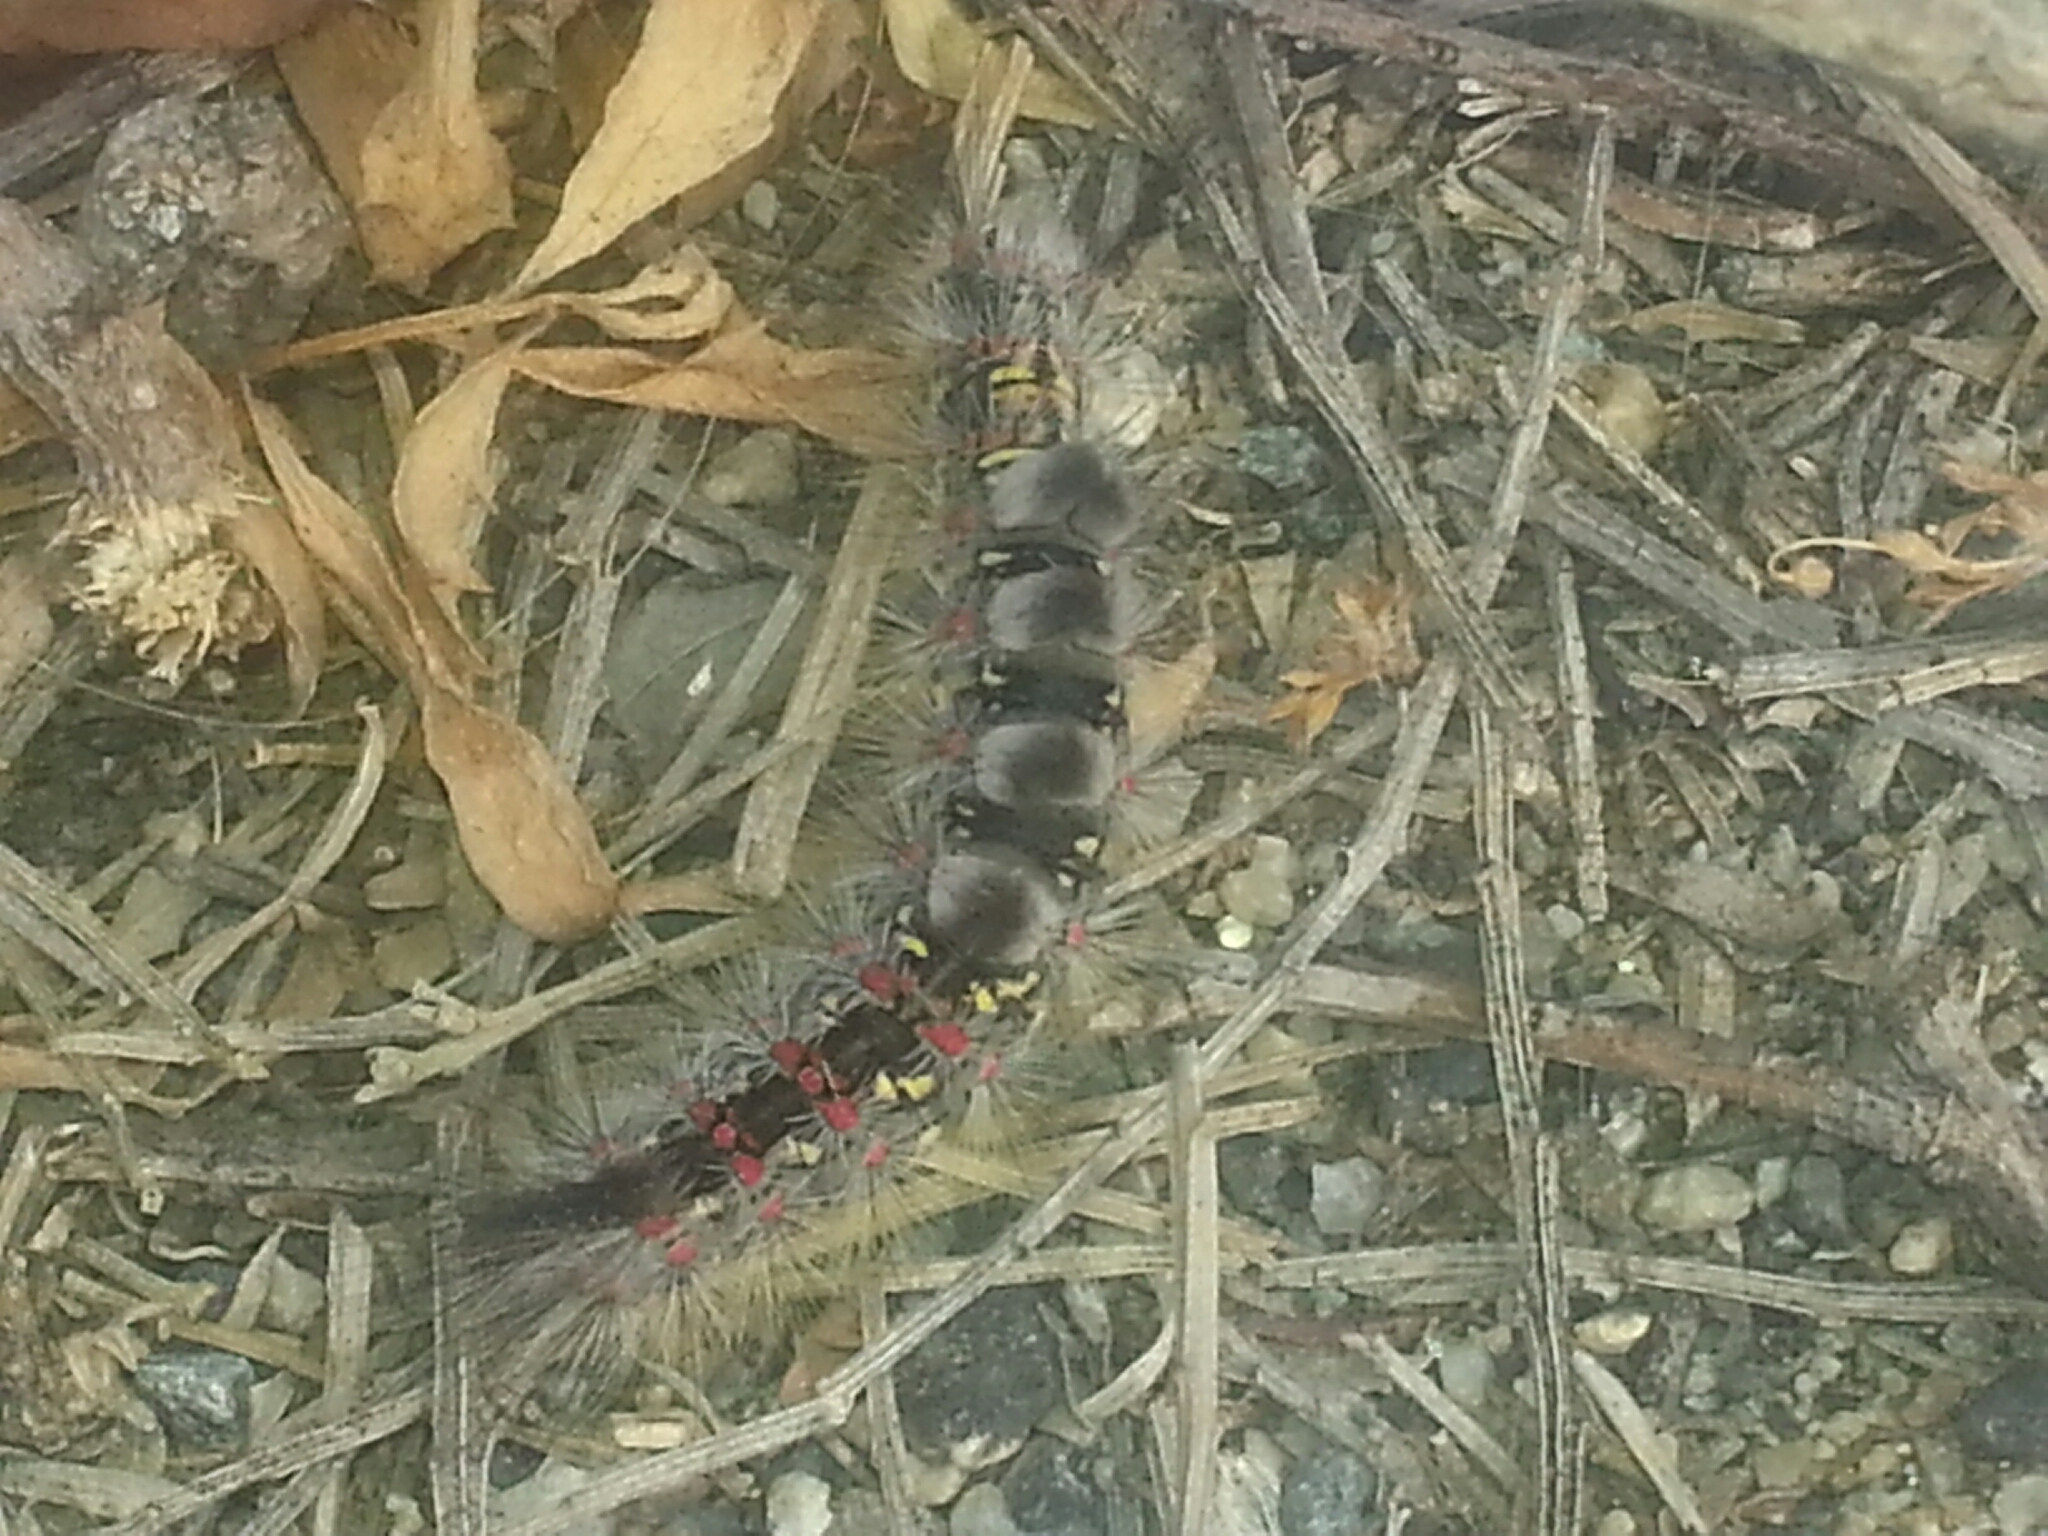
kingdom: Animalia
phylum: Arthropoda
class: Insecta
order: Lepidoptera
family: Erebidae
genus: Orgyia
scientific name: Orgyia vetusta
